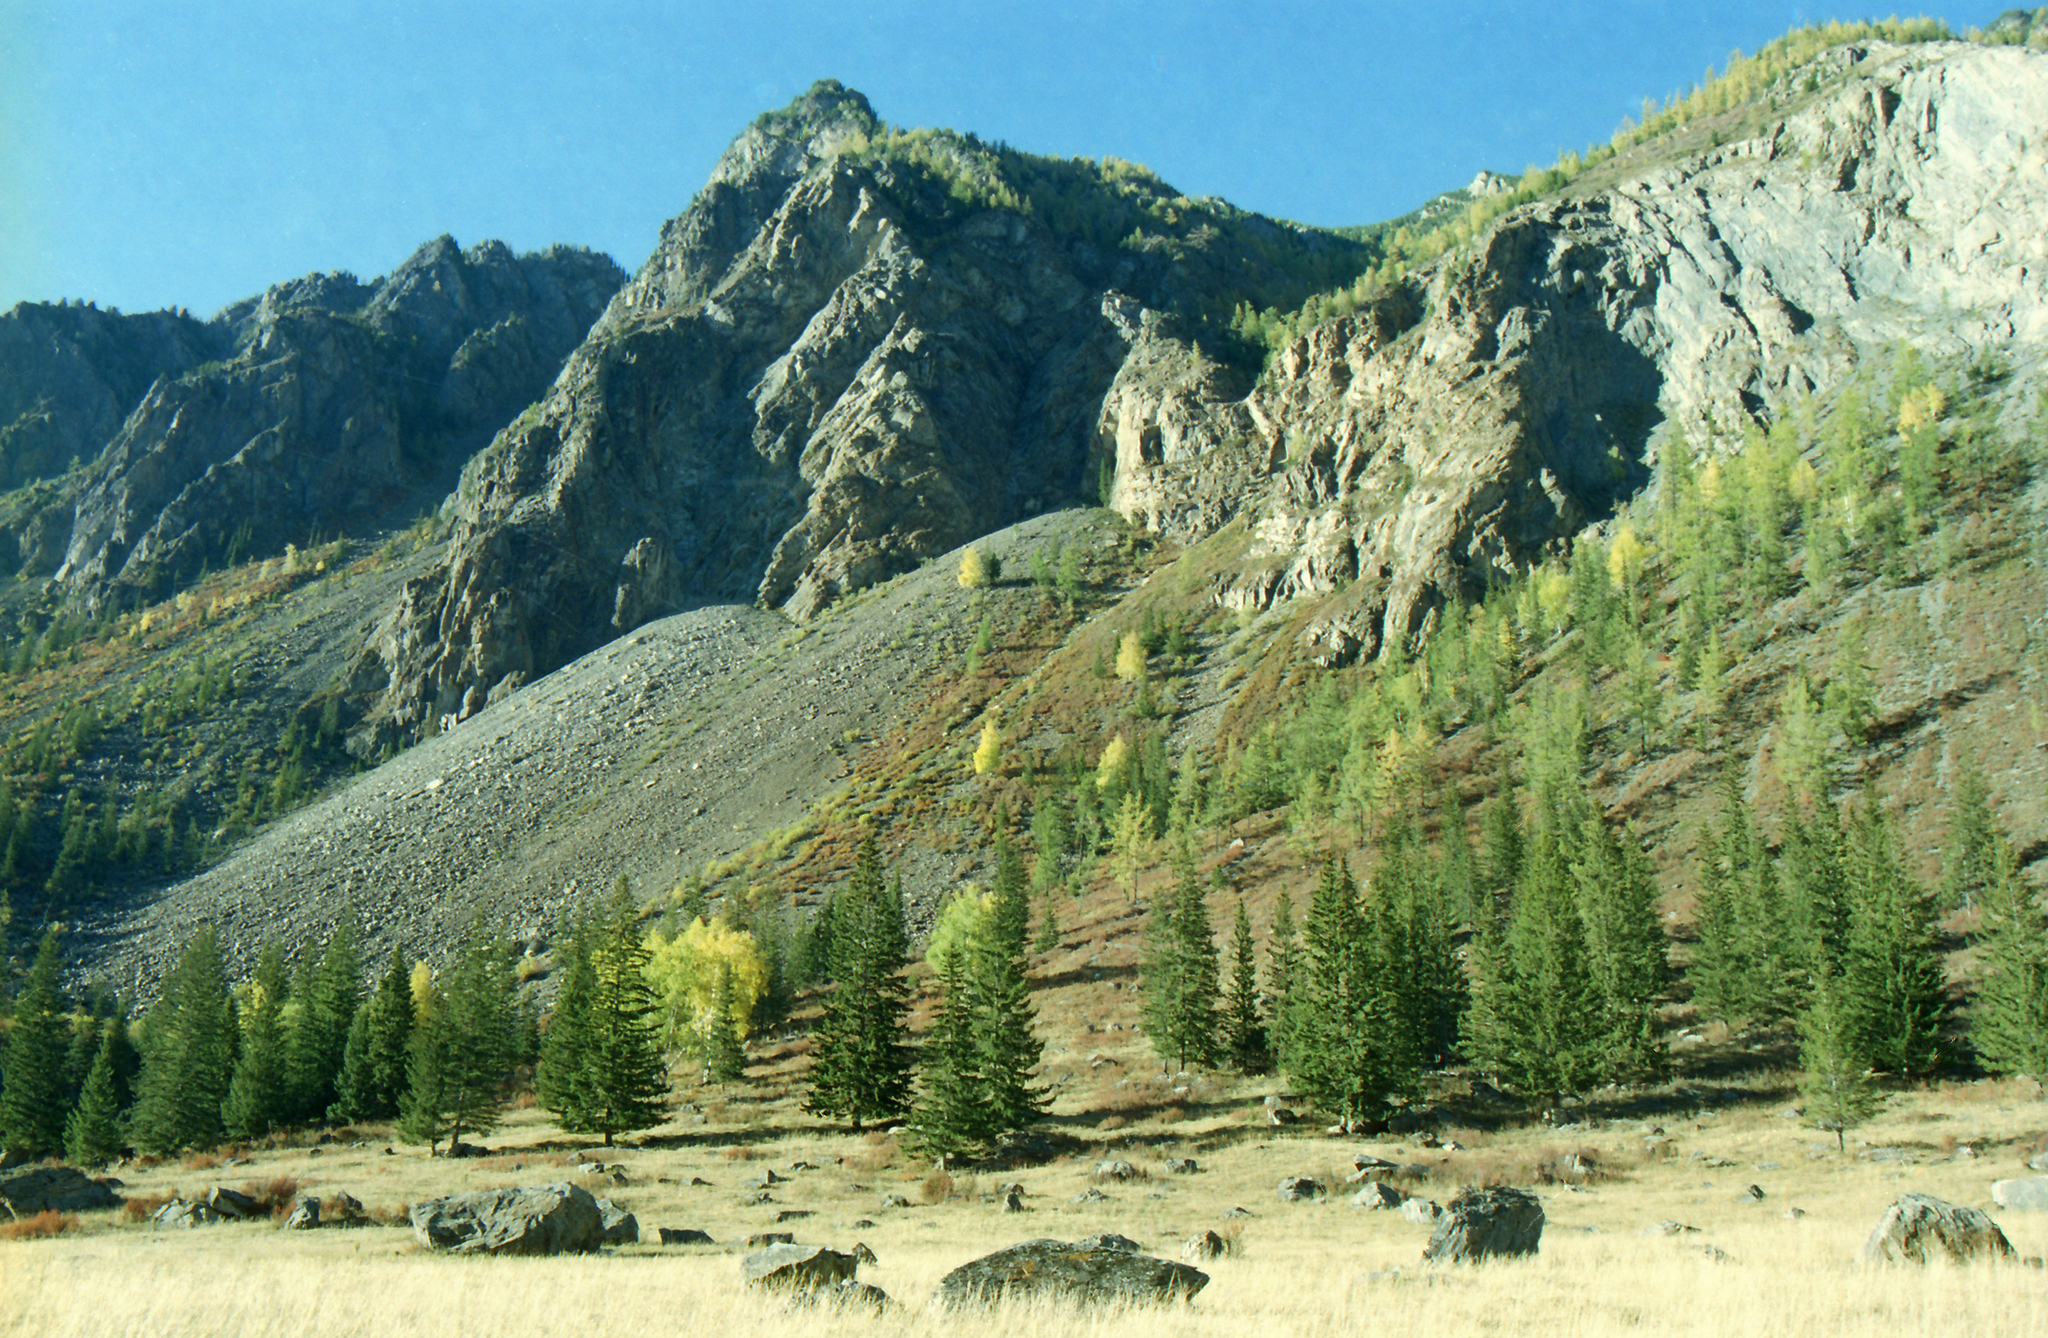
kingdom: Plantae
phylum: Tracheophyta
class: Pinopsida
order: Pinales
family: Pinaceae
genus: Picea
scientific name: Picea obovata
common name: Siberian spruce
